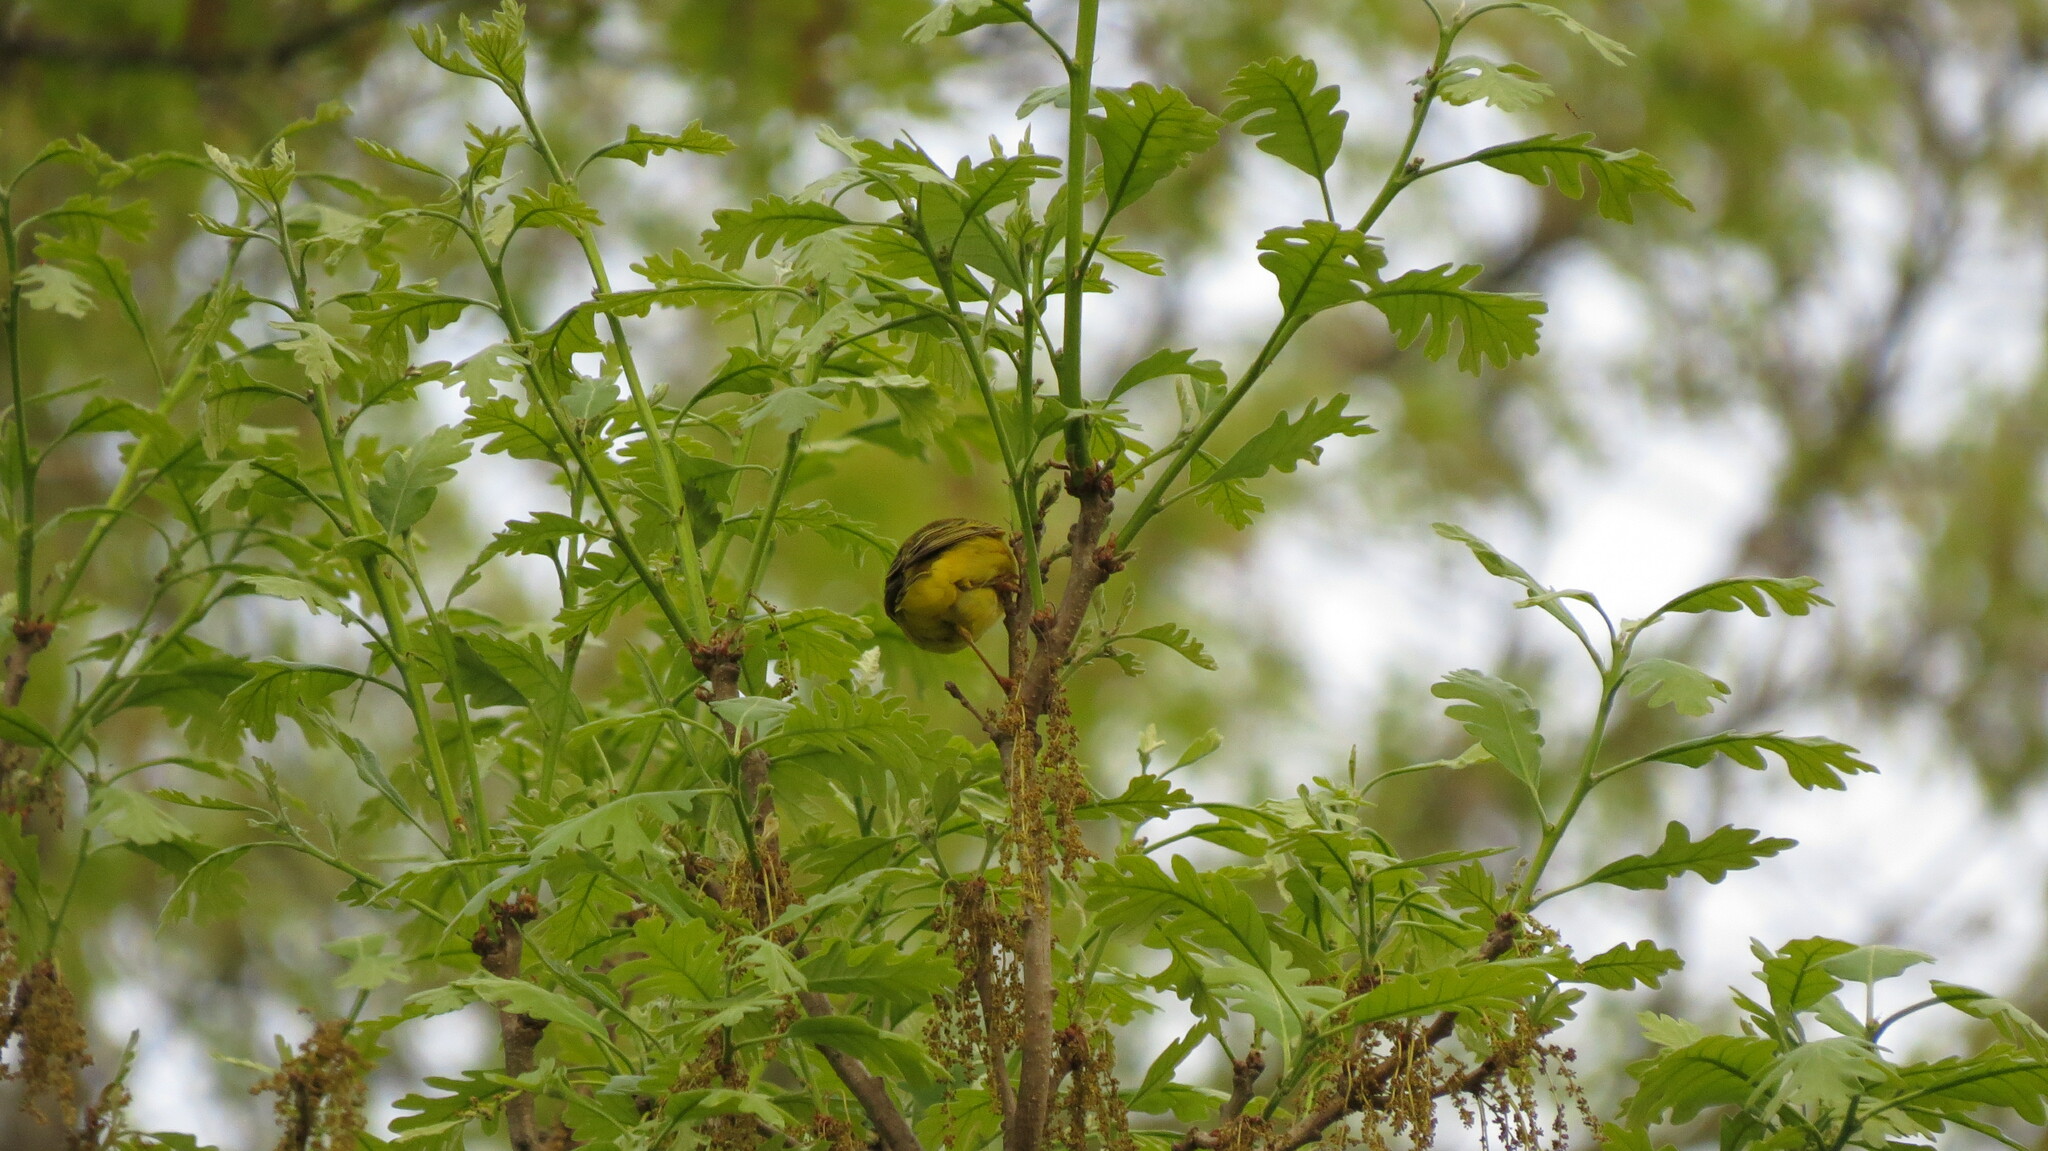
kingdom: Animalia
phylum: Chordata
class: Aves
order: Passeriformes
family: Parulidae
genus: Setophaga
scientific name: Setophaga petechia
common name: Yellow warbler
